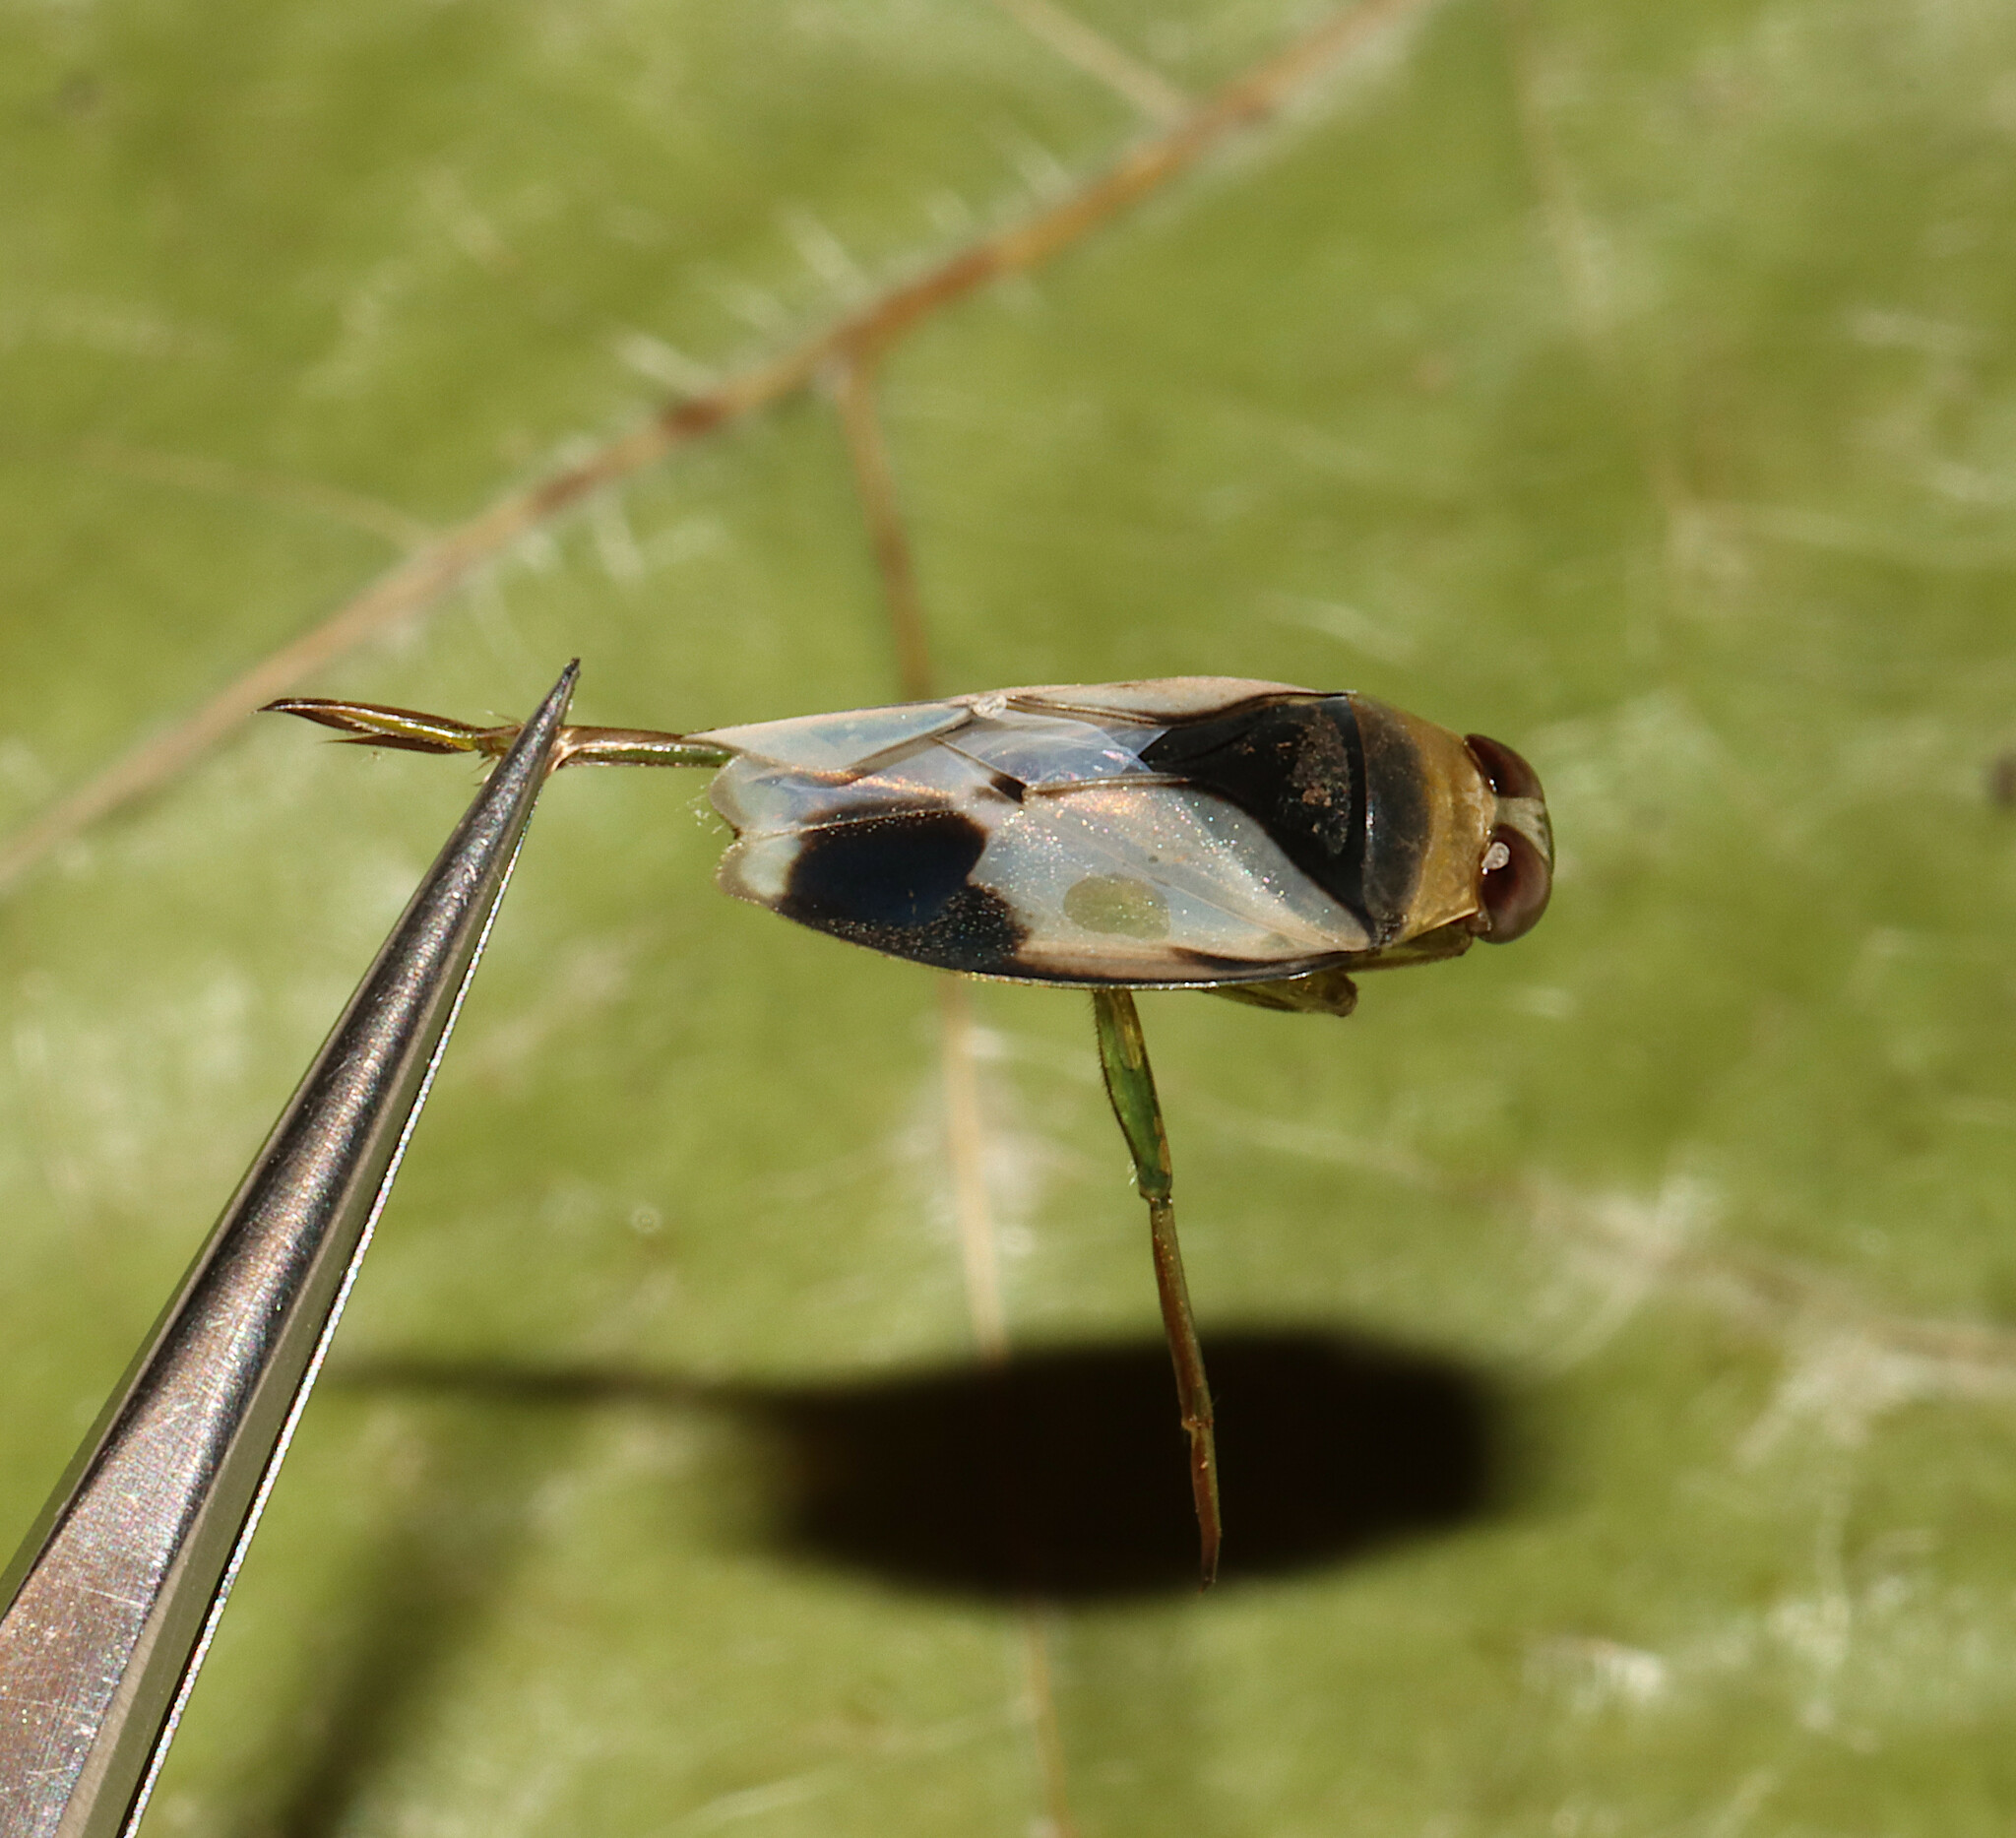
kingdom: Animalia
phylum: Arthropoda
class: Insecta
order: Hemiptera
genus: Paranecta
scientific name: Paranecta
